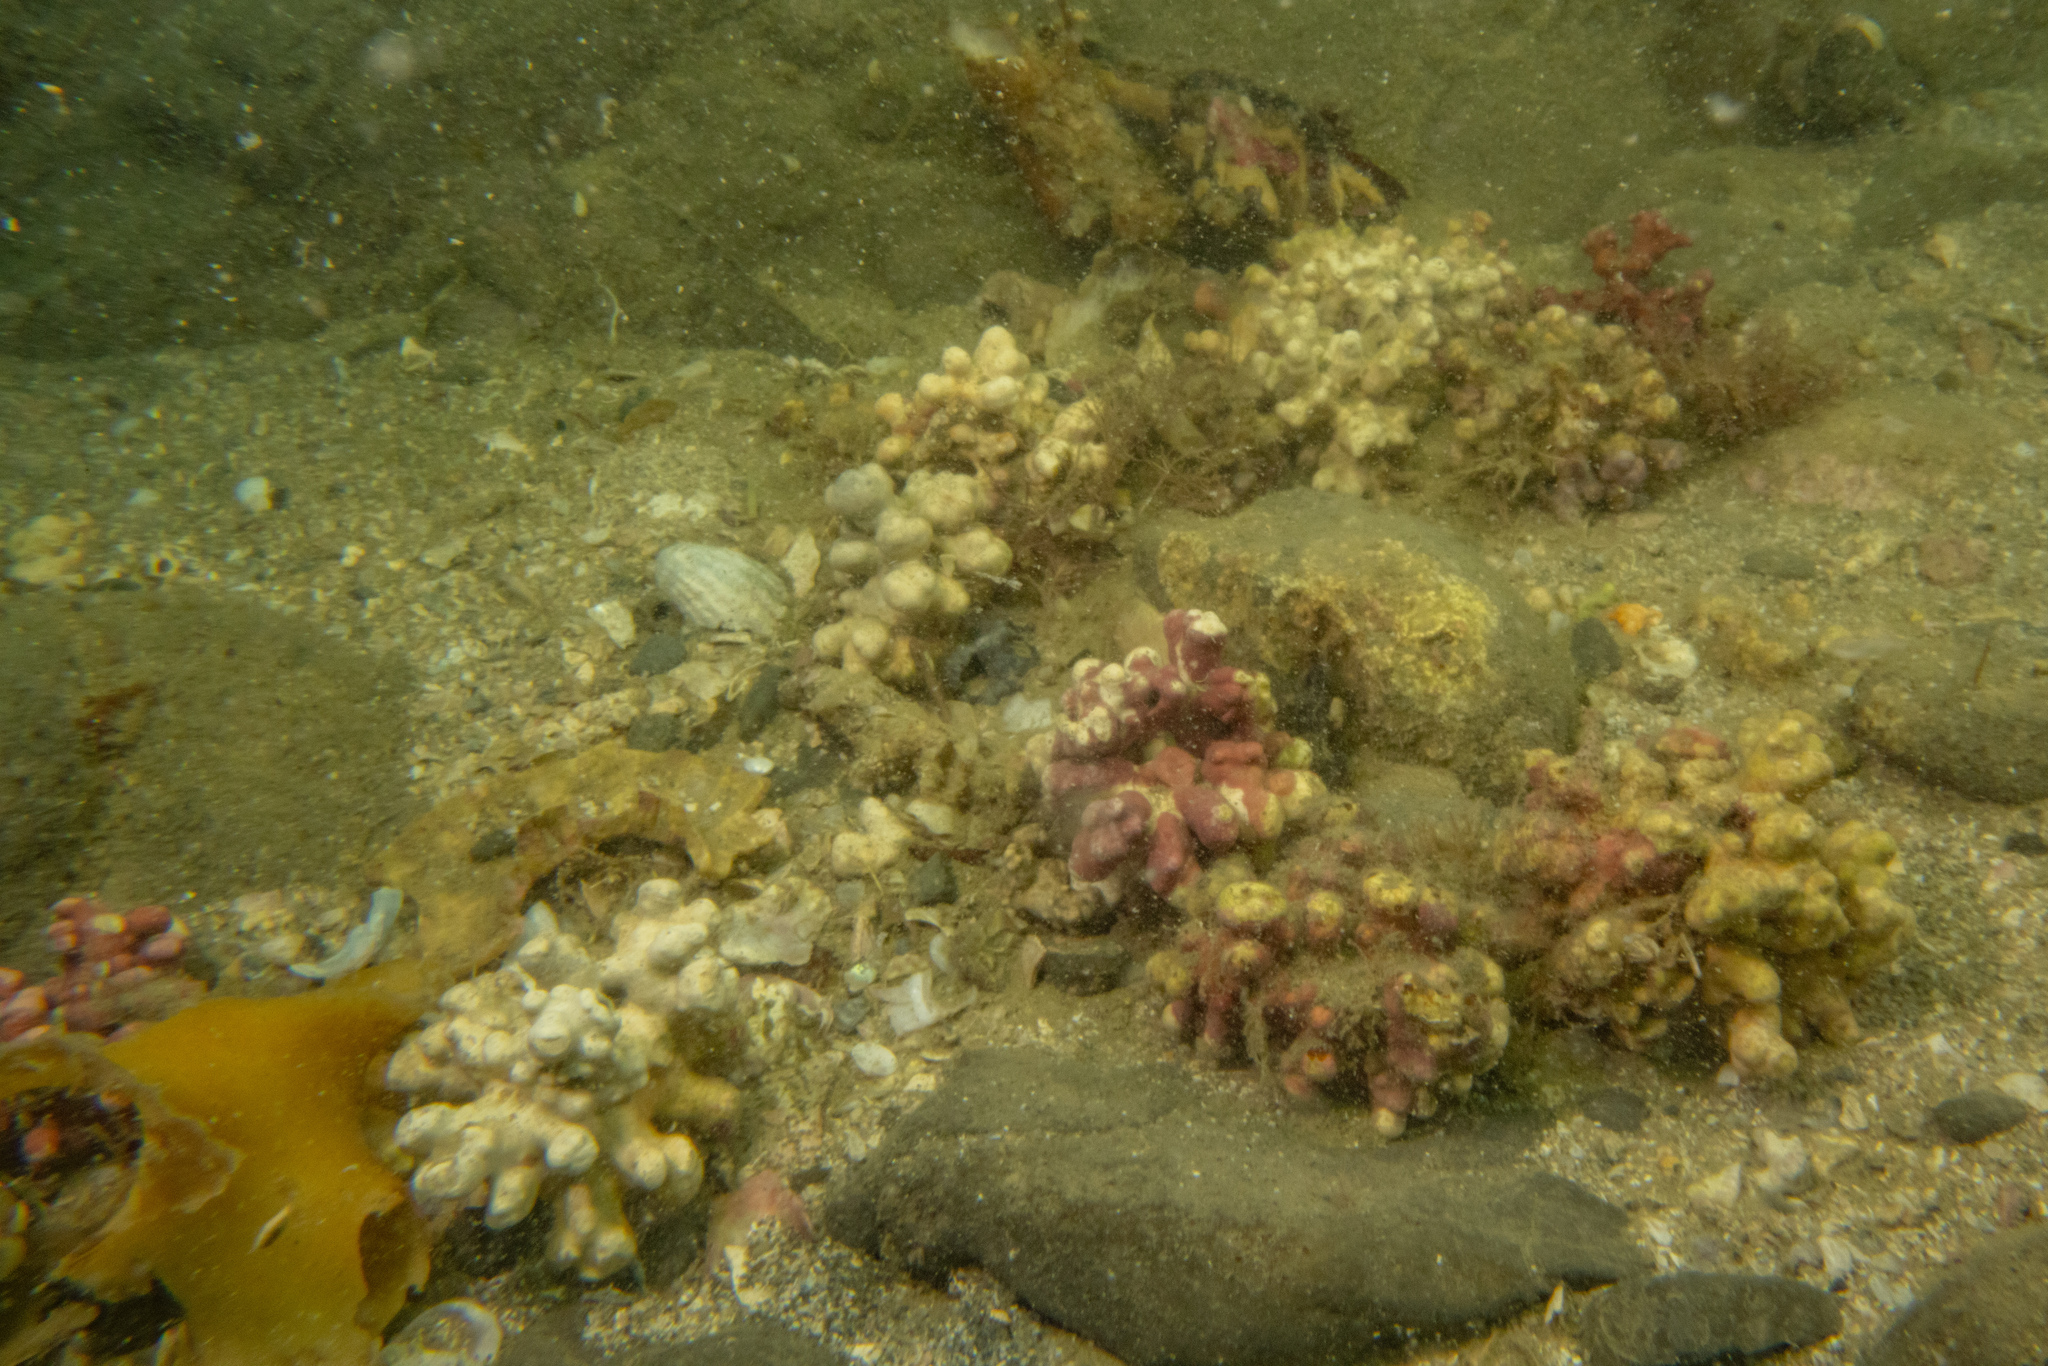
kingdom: Plantae
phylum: Rhodophyta
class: Florideophyceae
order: Corallinales
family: Hapalidiaceae
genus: Lithothamnion
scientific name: Lithothamnion crispatum
